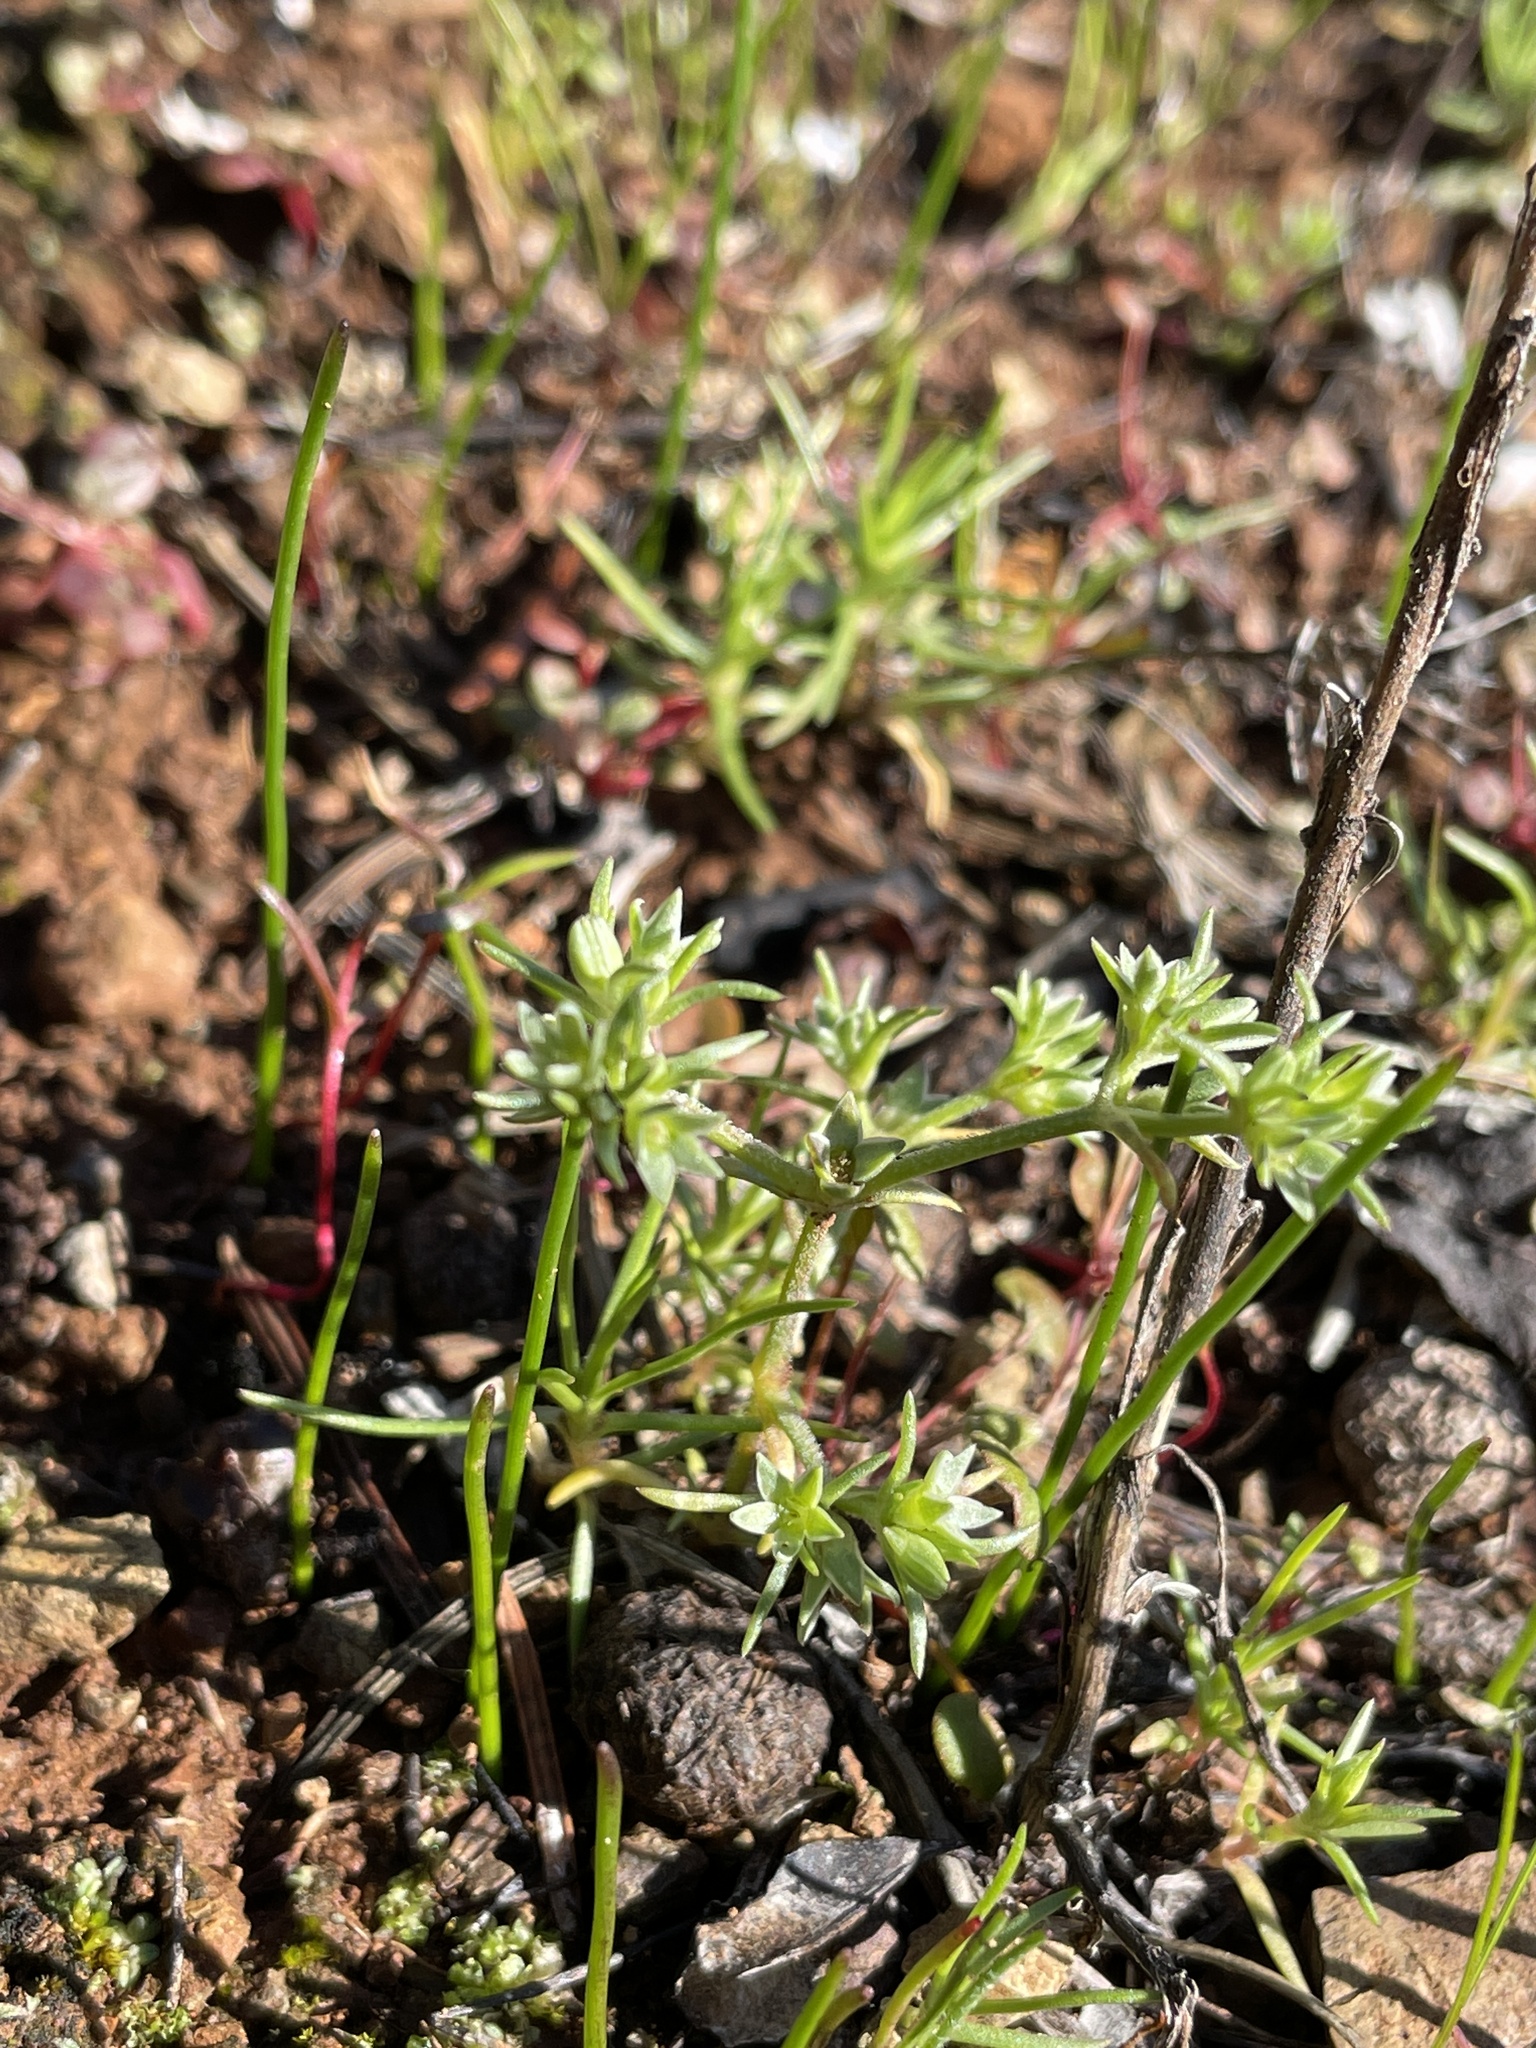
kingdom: Plantae
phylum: Tracheophyta
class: Magnoliopsida
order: Caryophyllales
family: Caryophyllaceae
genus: Scleranthus
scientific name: Scleranthus annuus
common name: Annual knawel
